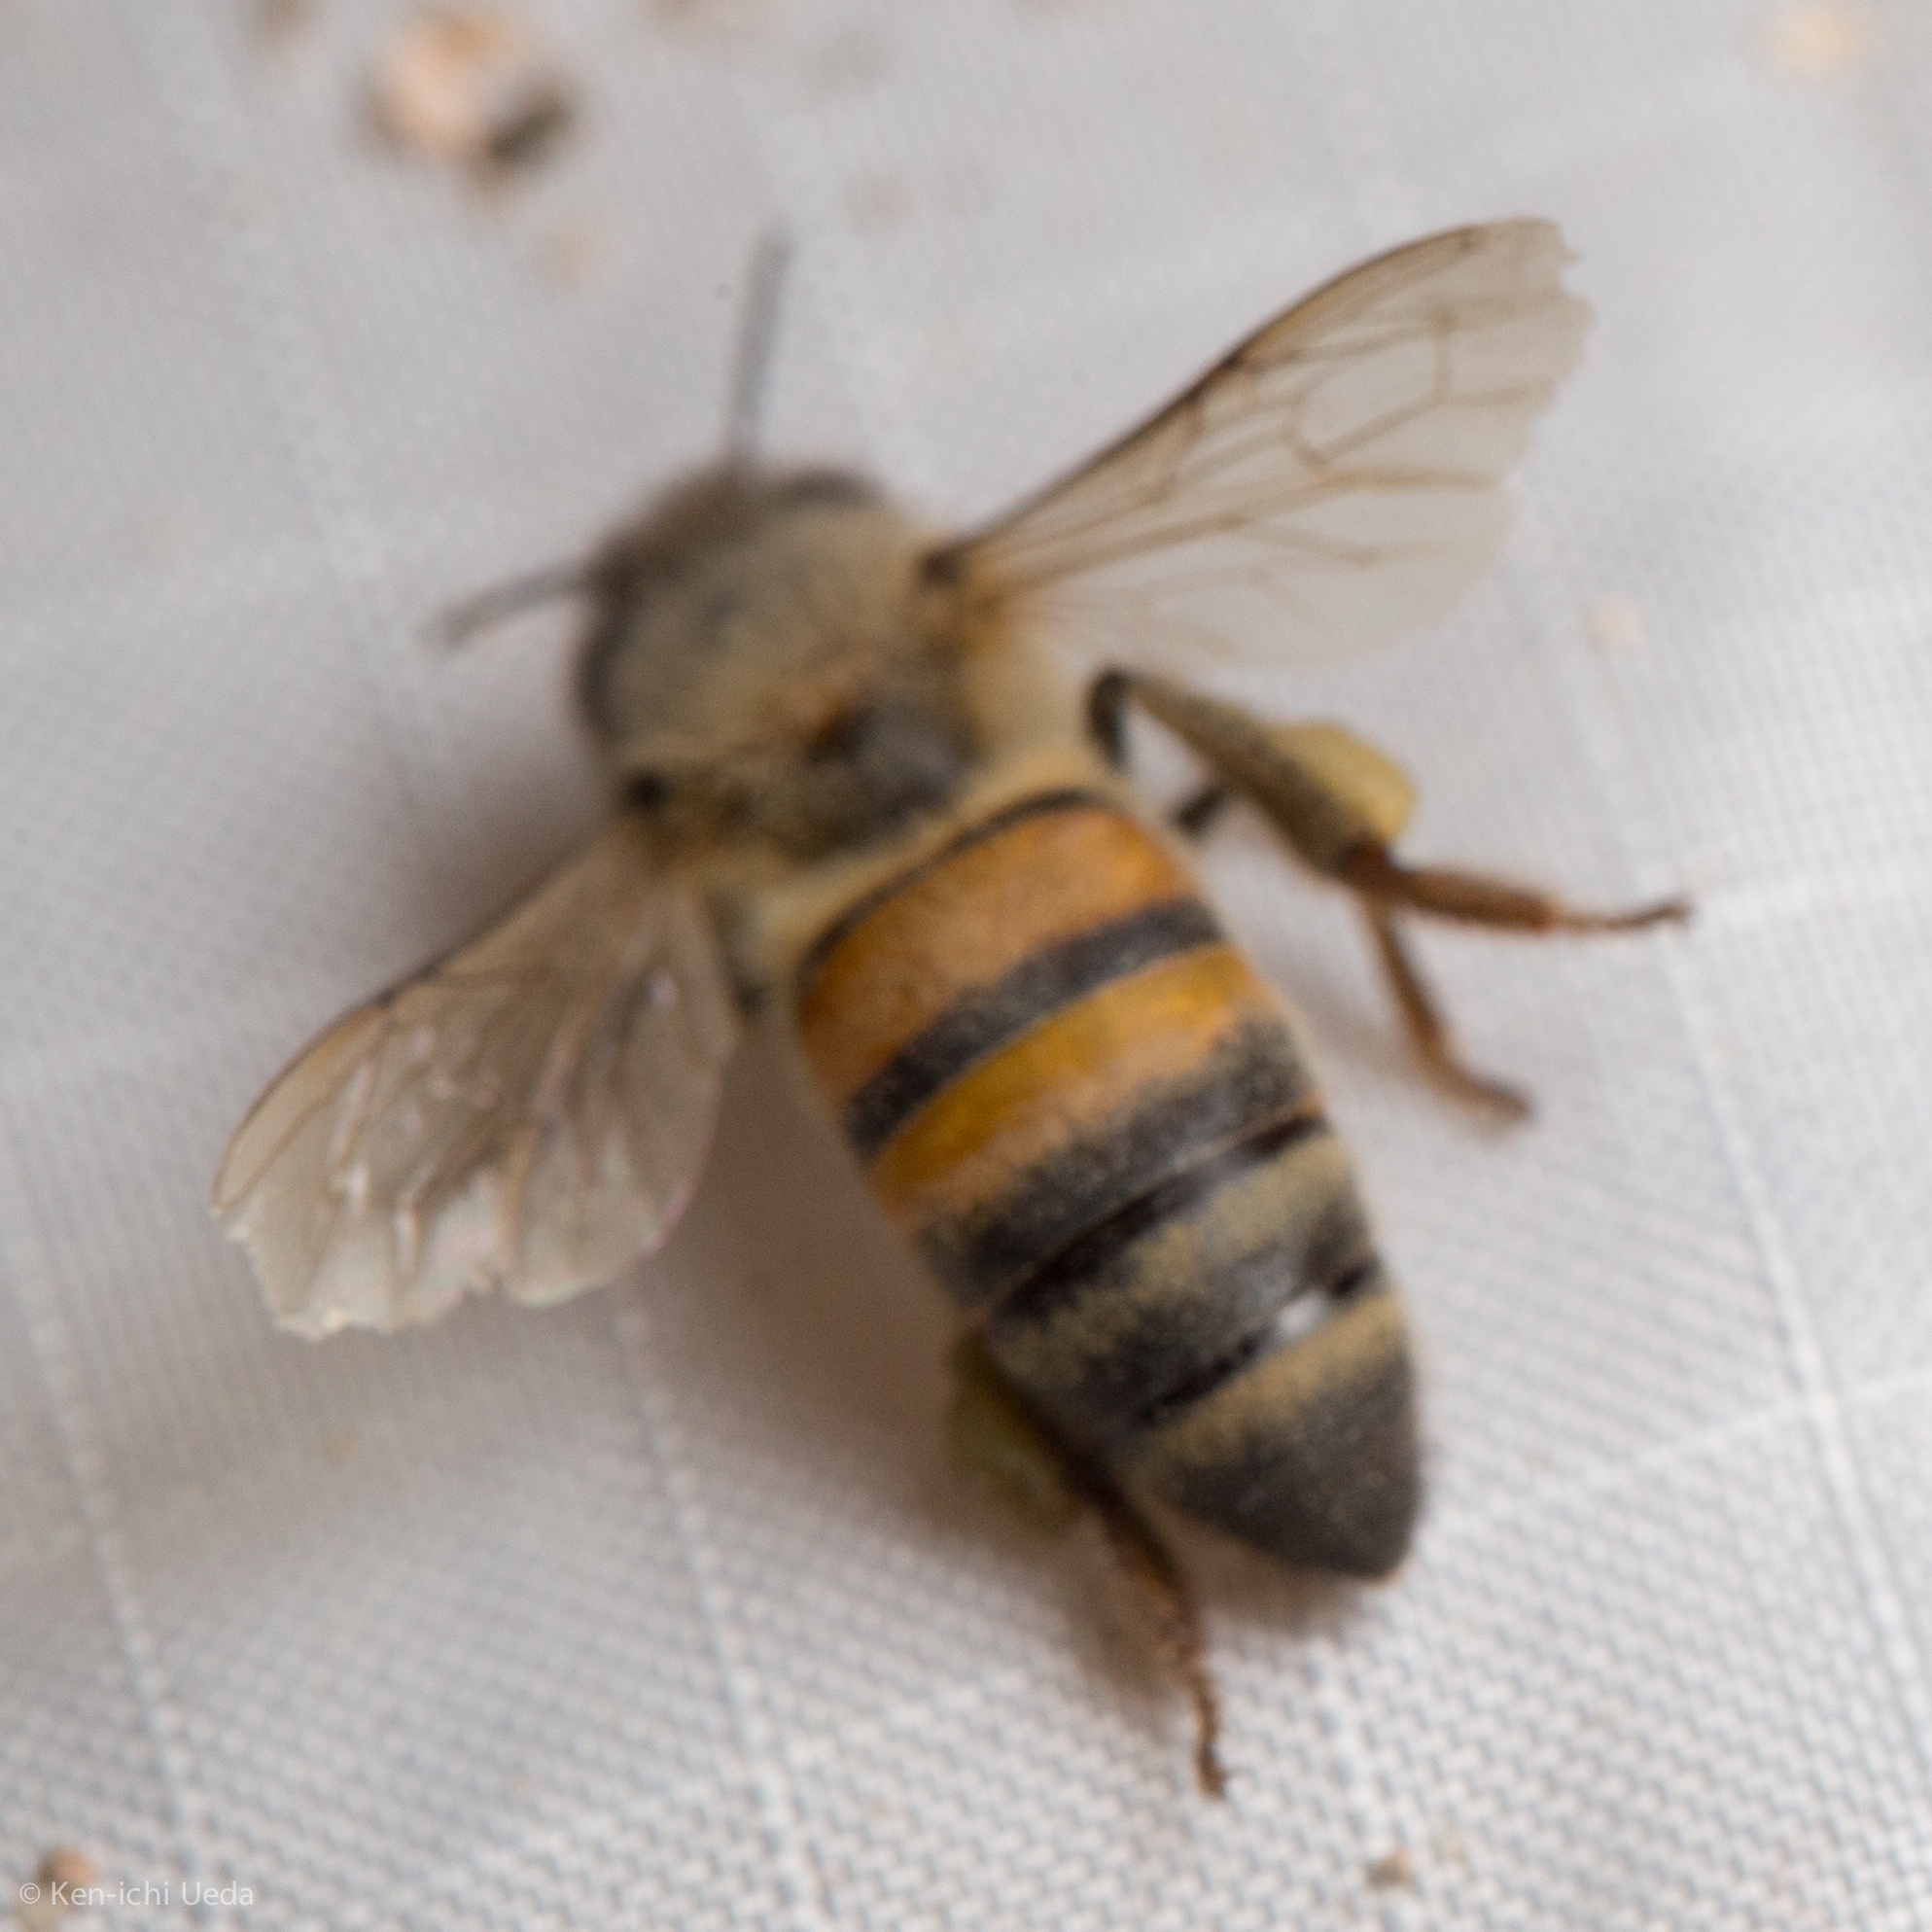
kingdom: Animalia
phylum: Arthropoda
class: Insecta
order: Hymenoptera
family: Apidae
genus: Apis
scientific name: Apis mellifera
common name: Honey bee
